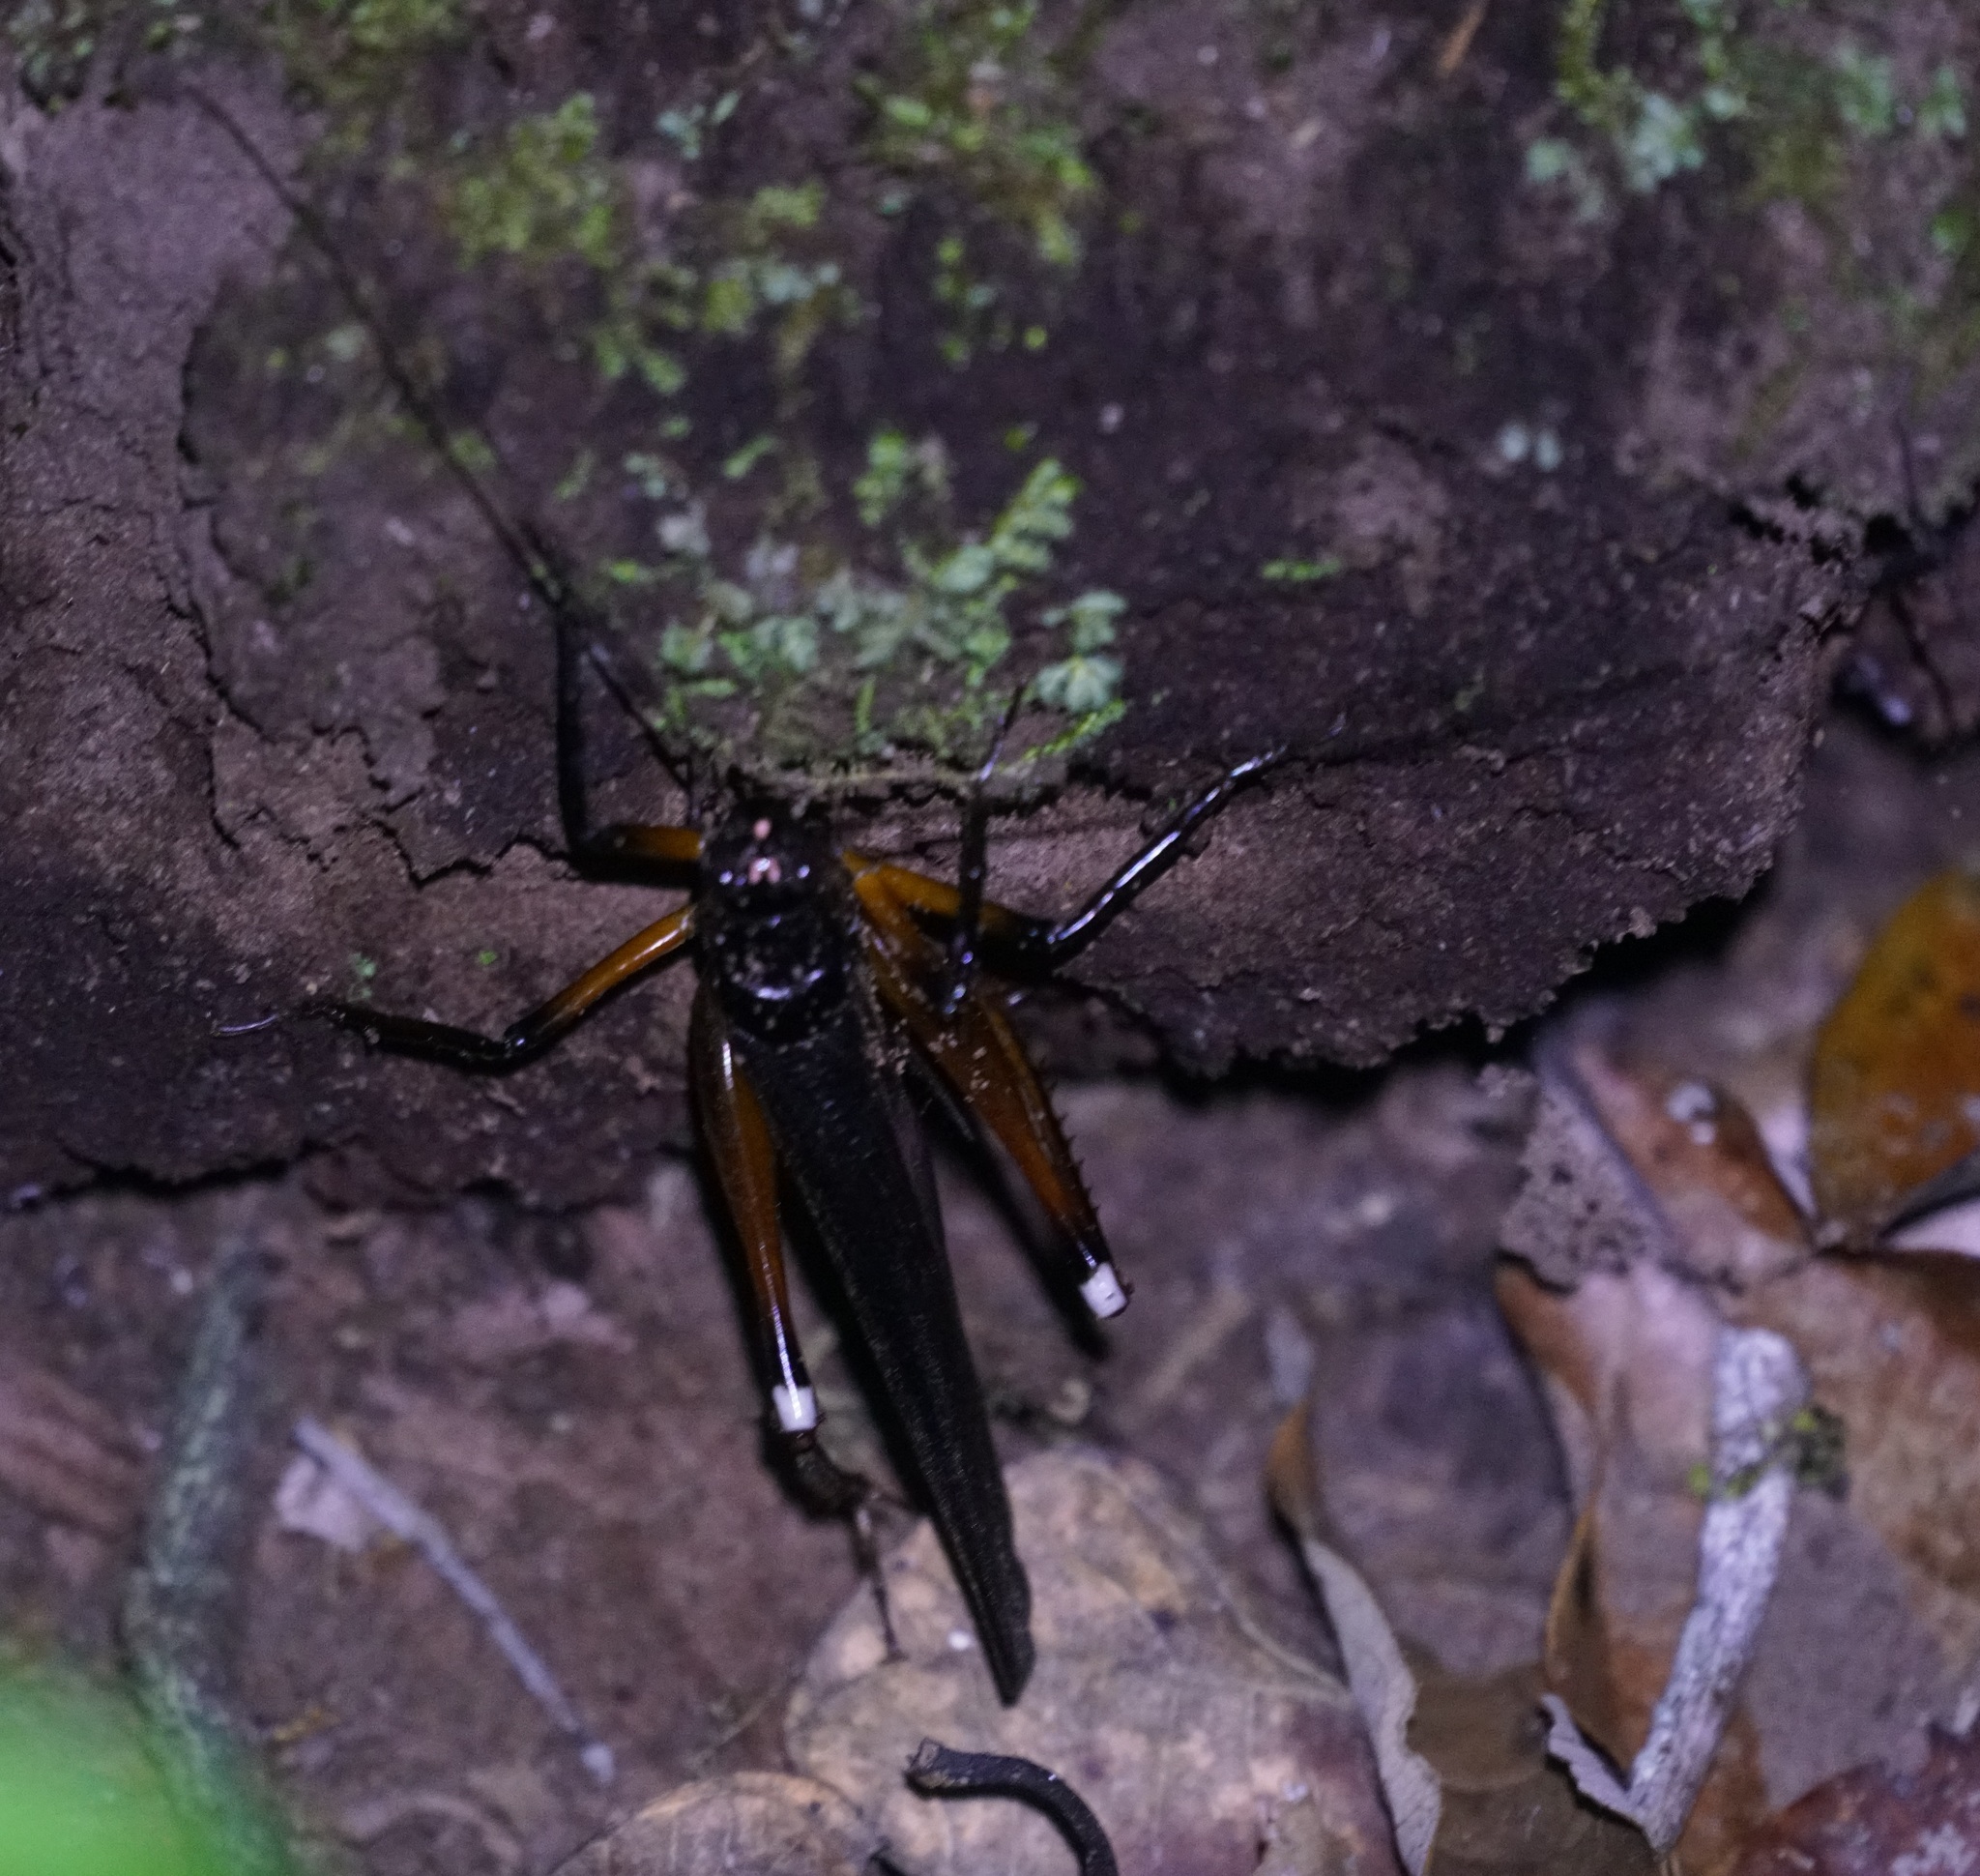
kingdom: Animalia
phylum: Arthropoda
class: Insecta
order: Orthoptera
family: Anostostomatidae
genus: Exogryllacris
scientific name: Exogryllacris ornata
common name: Broad-winged forest cricket
